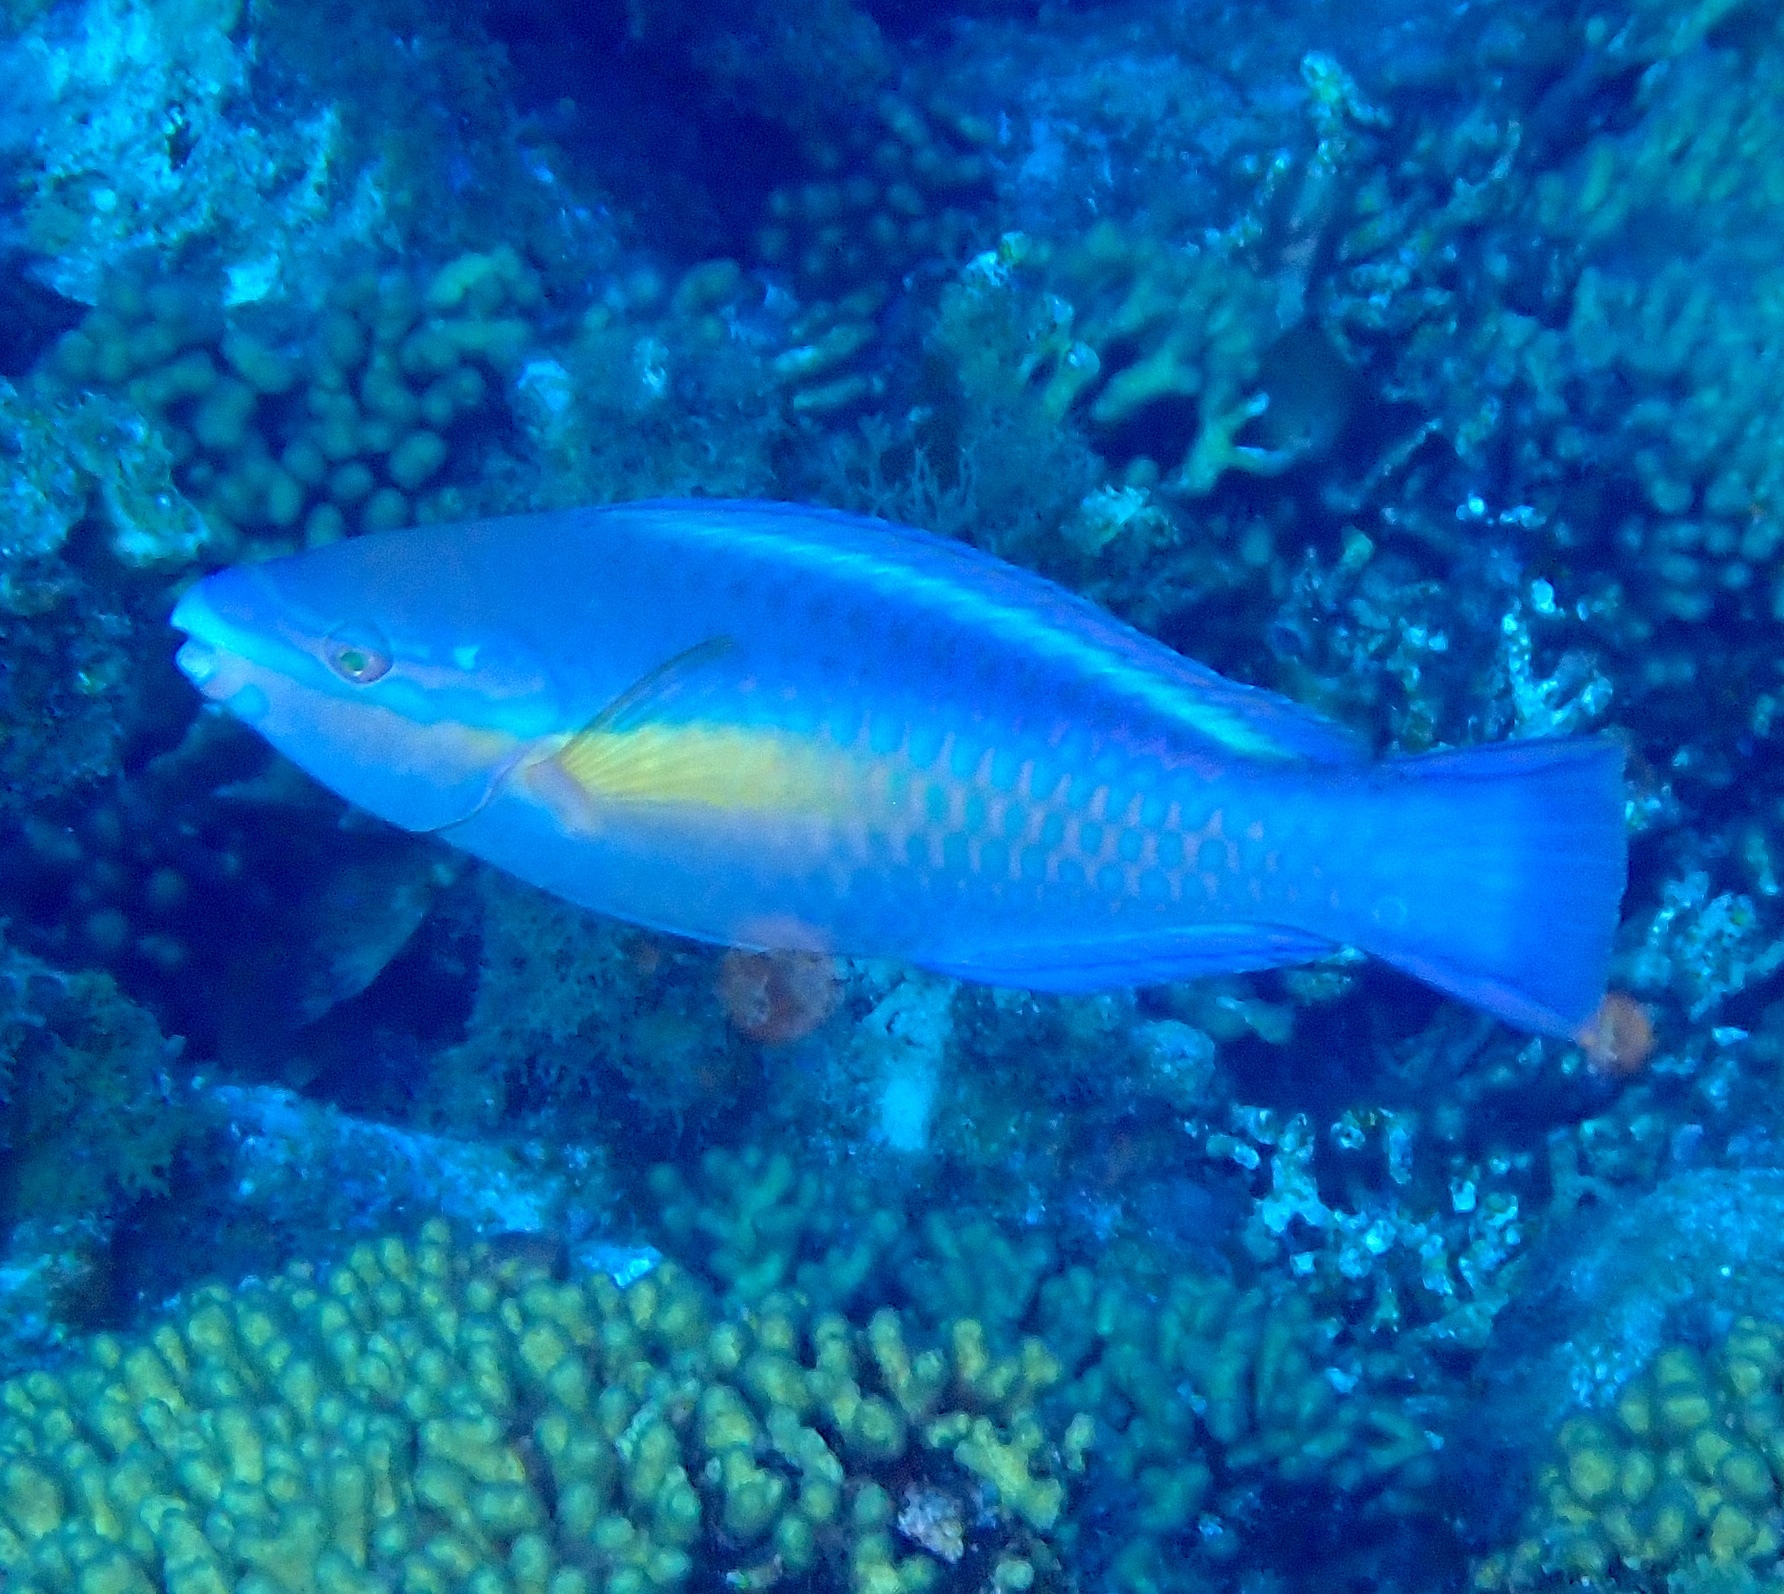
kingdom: Animalia
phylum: Chordata
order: Perciformes
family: Scaridae
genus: Scarus
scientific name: Scarus taeniopterus
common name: Princess parrotfish
